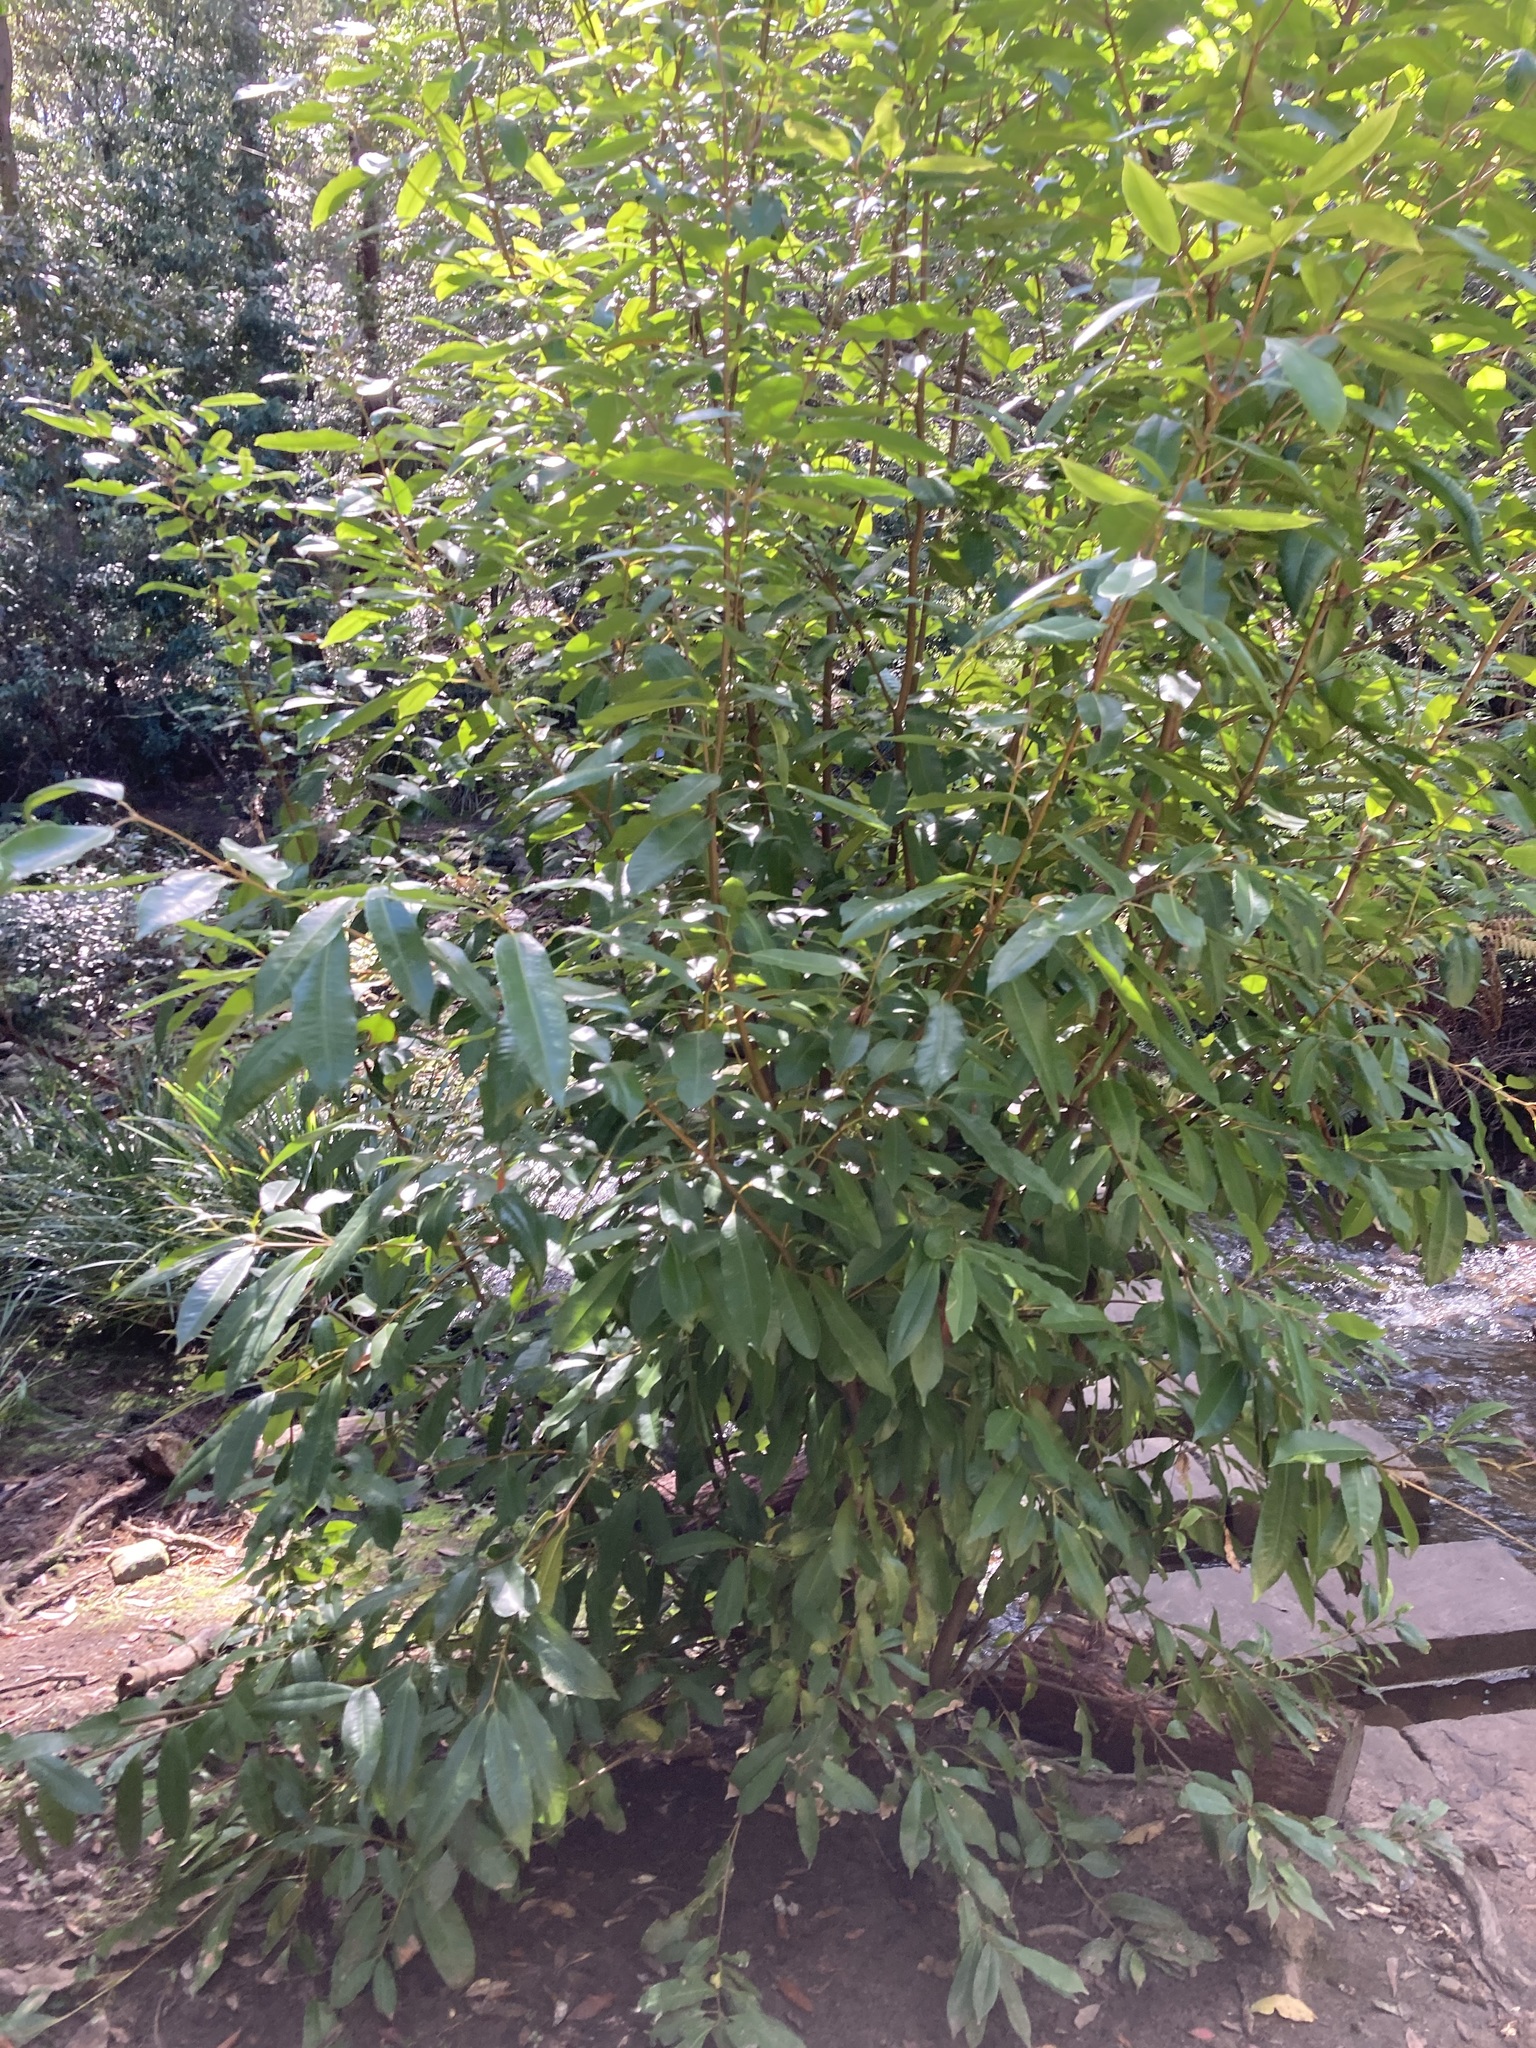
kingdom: Plantae
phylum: Tracheophyta
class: Magnoliopsida
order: Oxalidales
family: Cunoniaceae
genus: Ceratopetalum
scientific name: Ceratopetalum apetalum
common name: Scented satinwood
